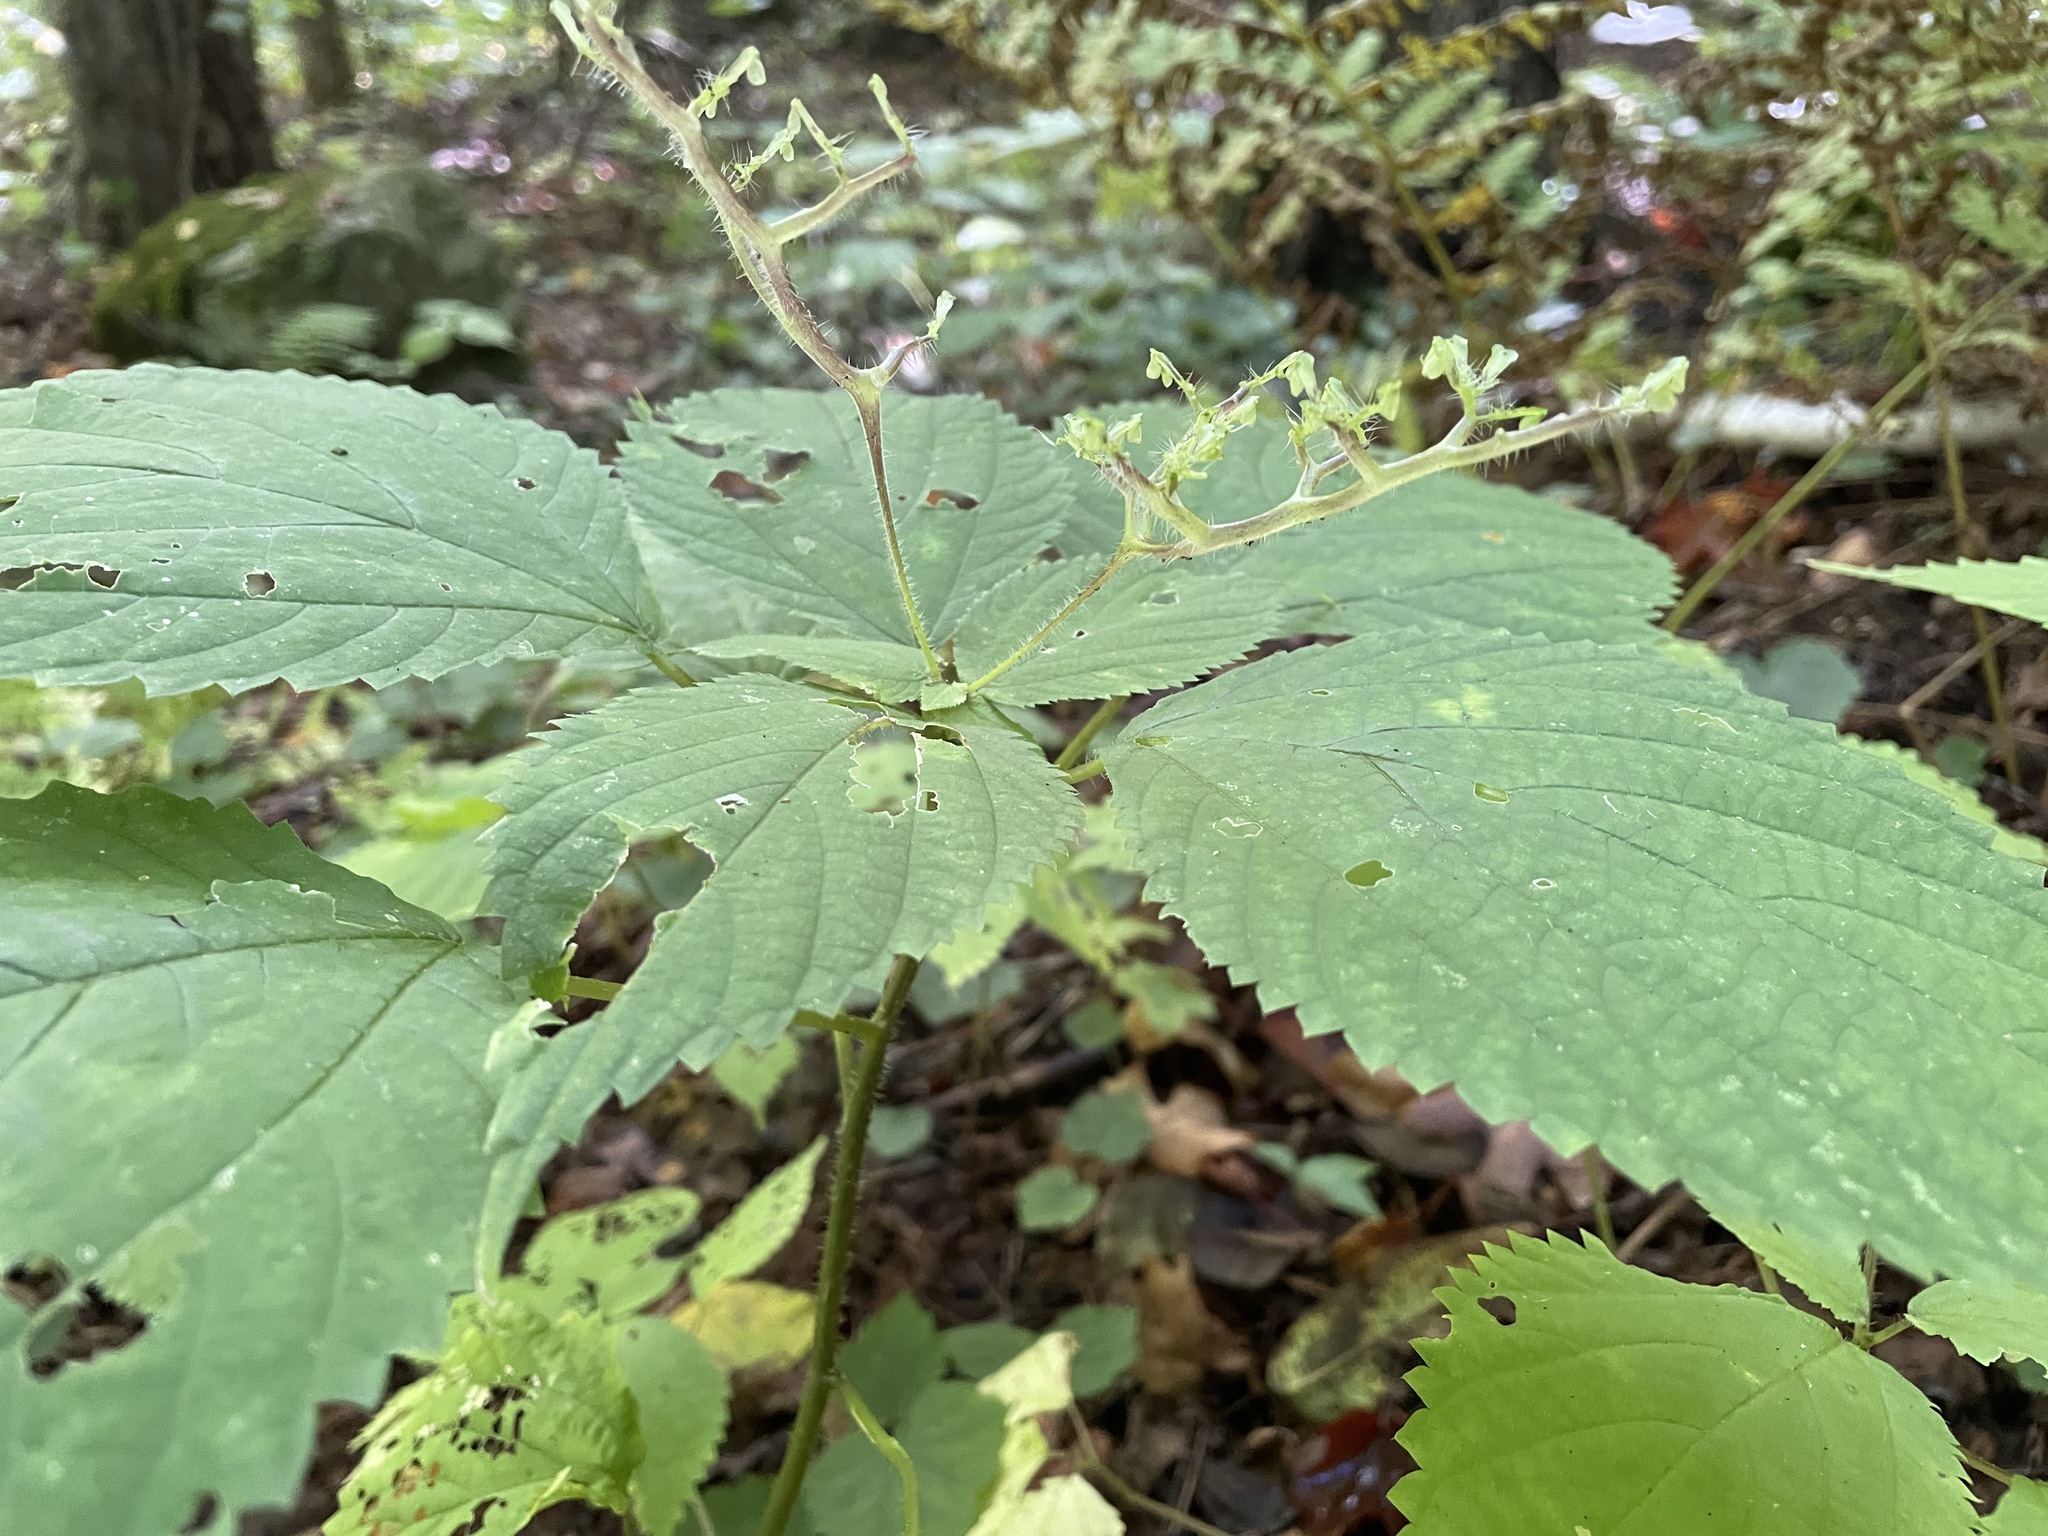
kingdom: Plantae
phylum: Tracheophyta
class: Magnoliopsida
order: Rosales
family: Urticaceae
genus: Laportea
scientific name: Laportea canadensis
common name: Canada nettle
